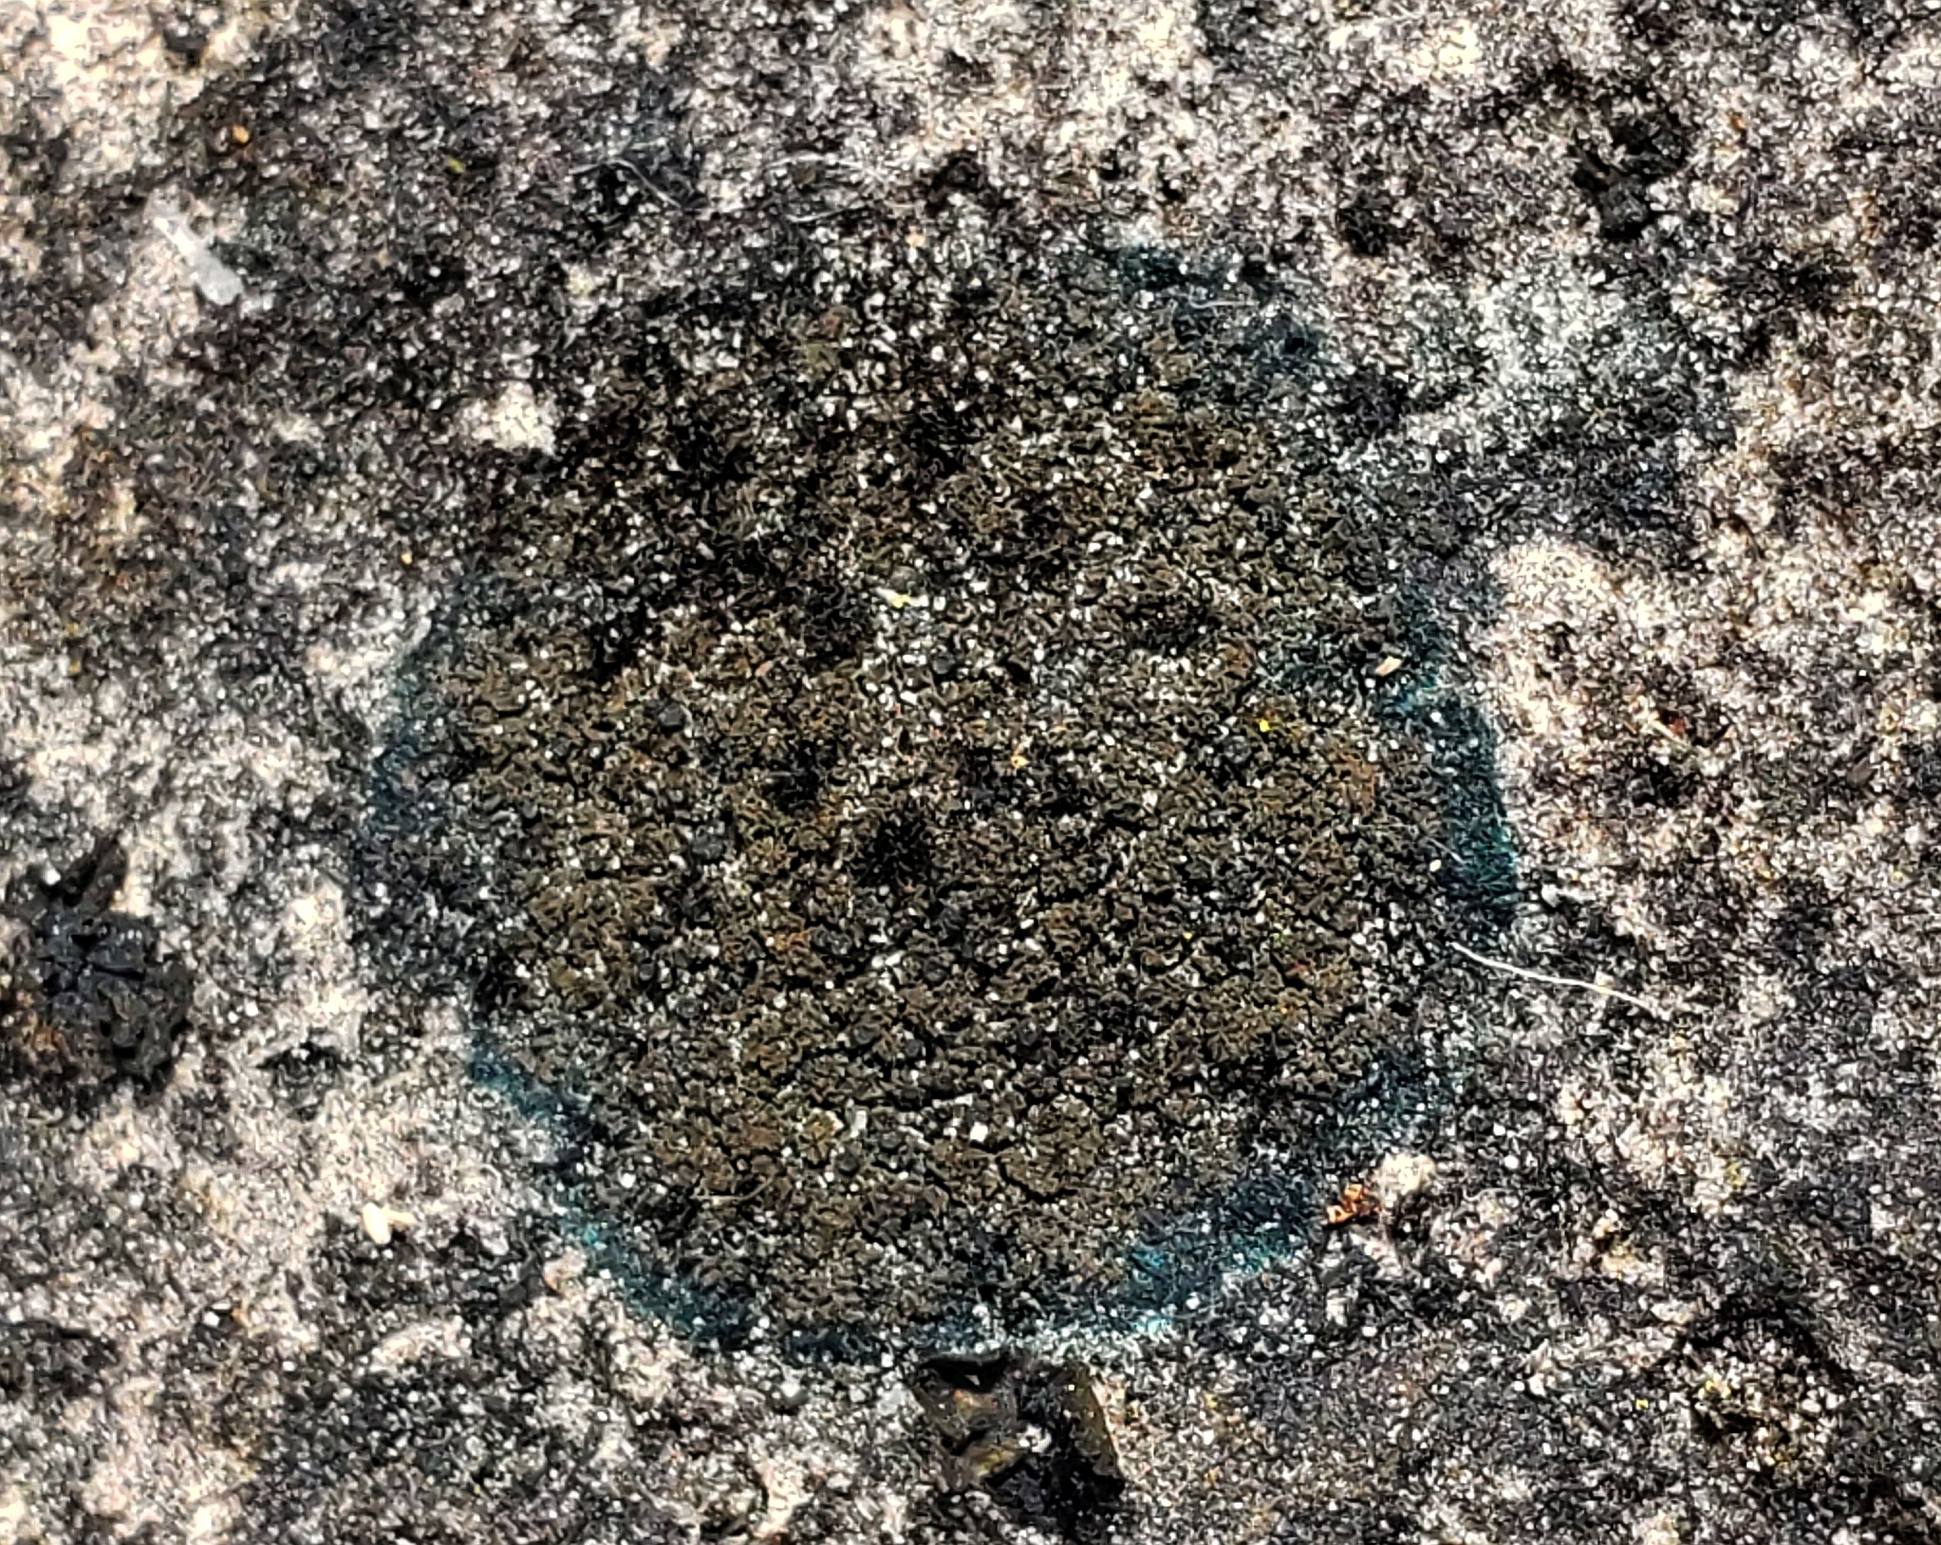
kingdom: Fungi
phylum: Ascomycota
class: Lecanoromycetes
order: Peltigerales
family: Placynthiaceae
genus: Placynthium
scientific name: Placynthium nigrum
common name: Blackthread lichen
